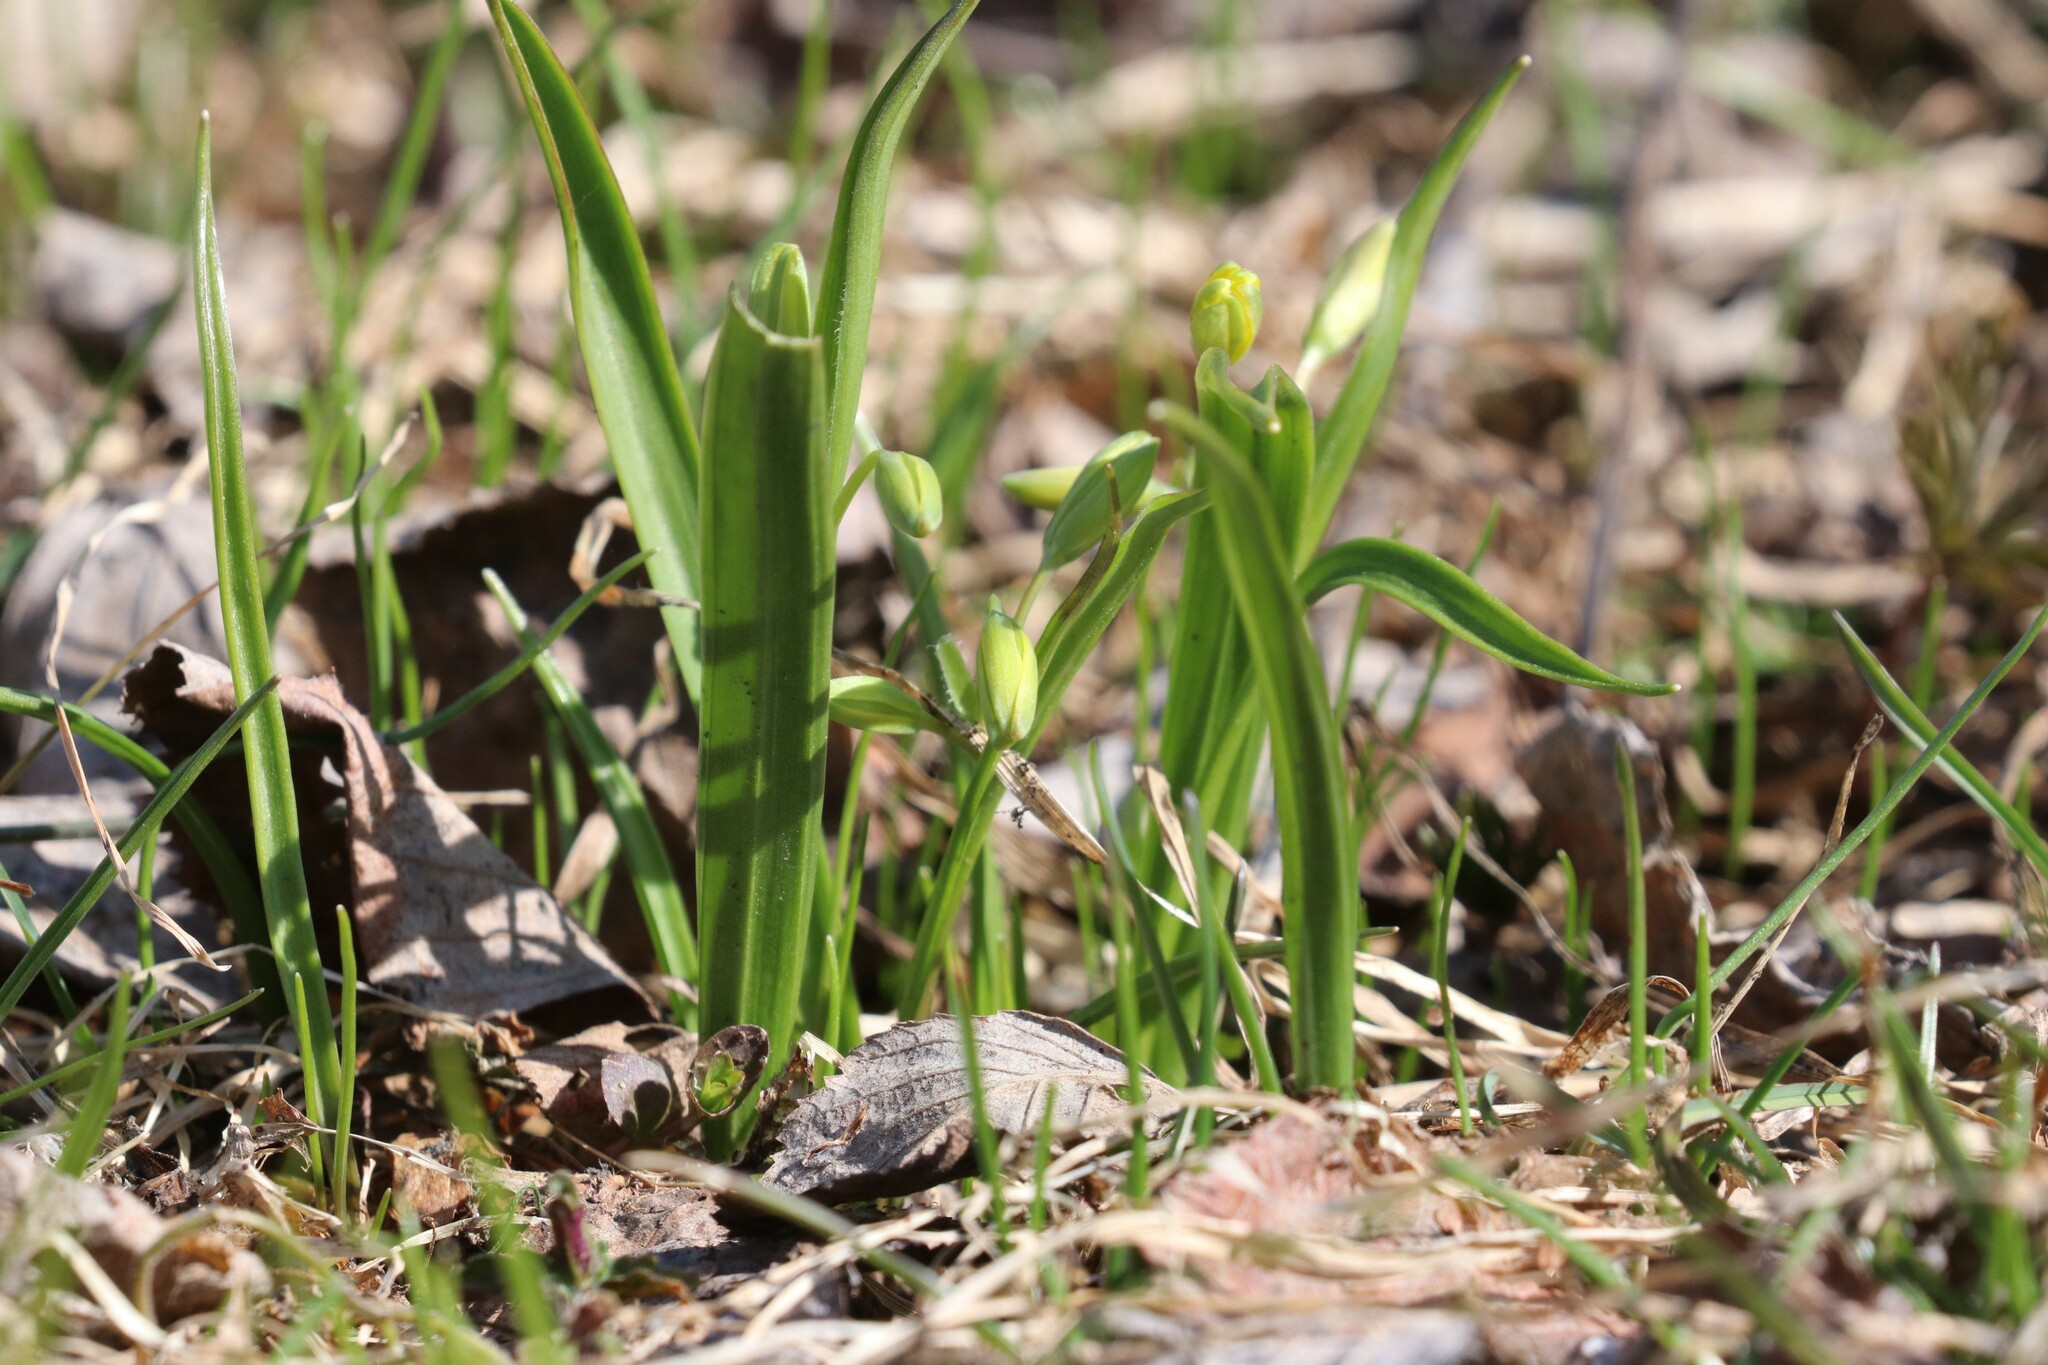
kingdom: Plantae
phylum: Tracheophyta
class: Liliopsida
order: Liliales
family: Liliaceae
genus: Gagea
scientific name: Gagea lutea
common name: Yellow star-of-bethlehem
